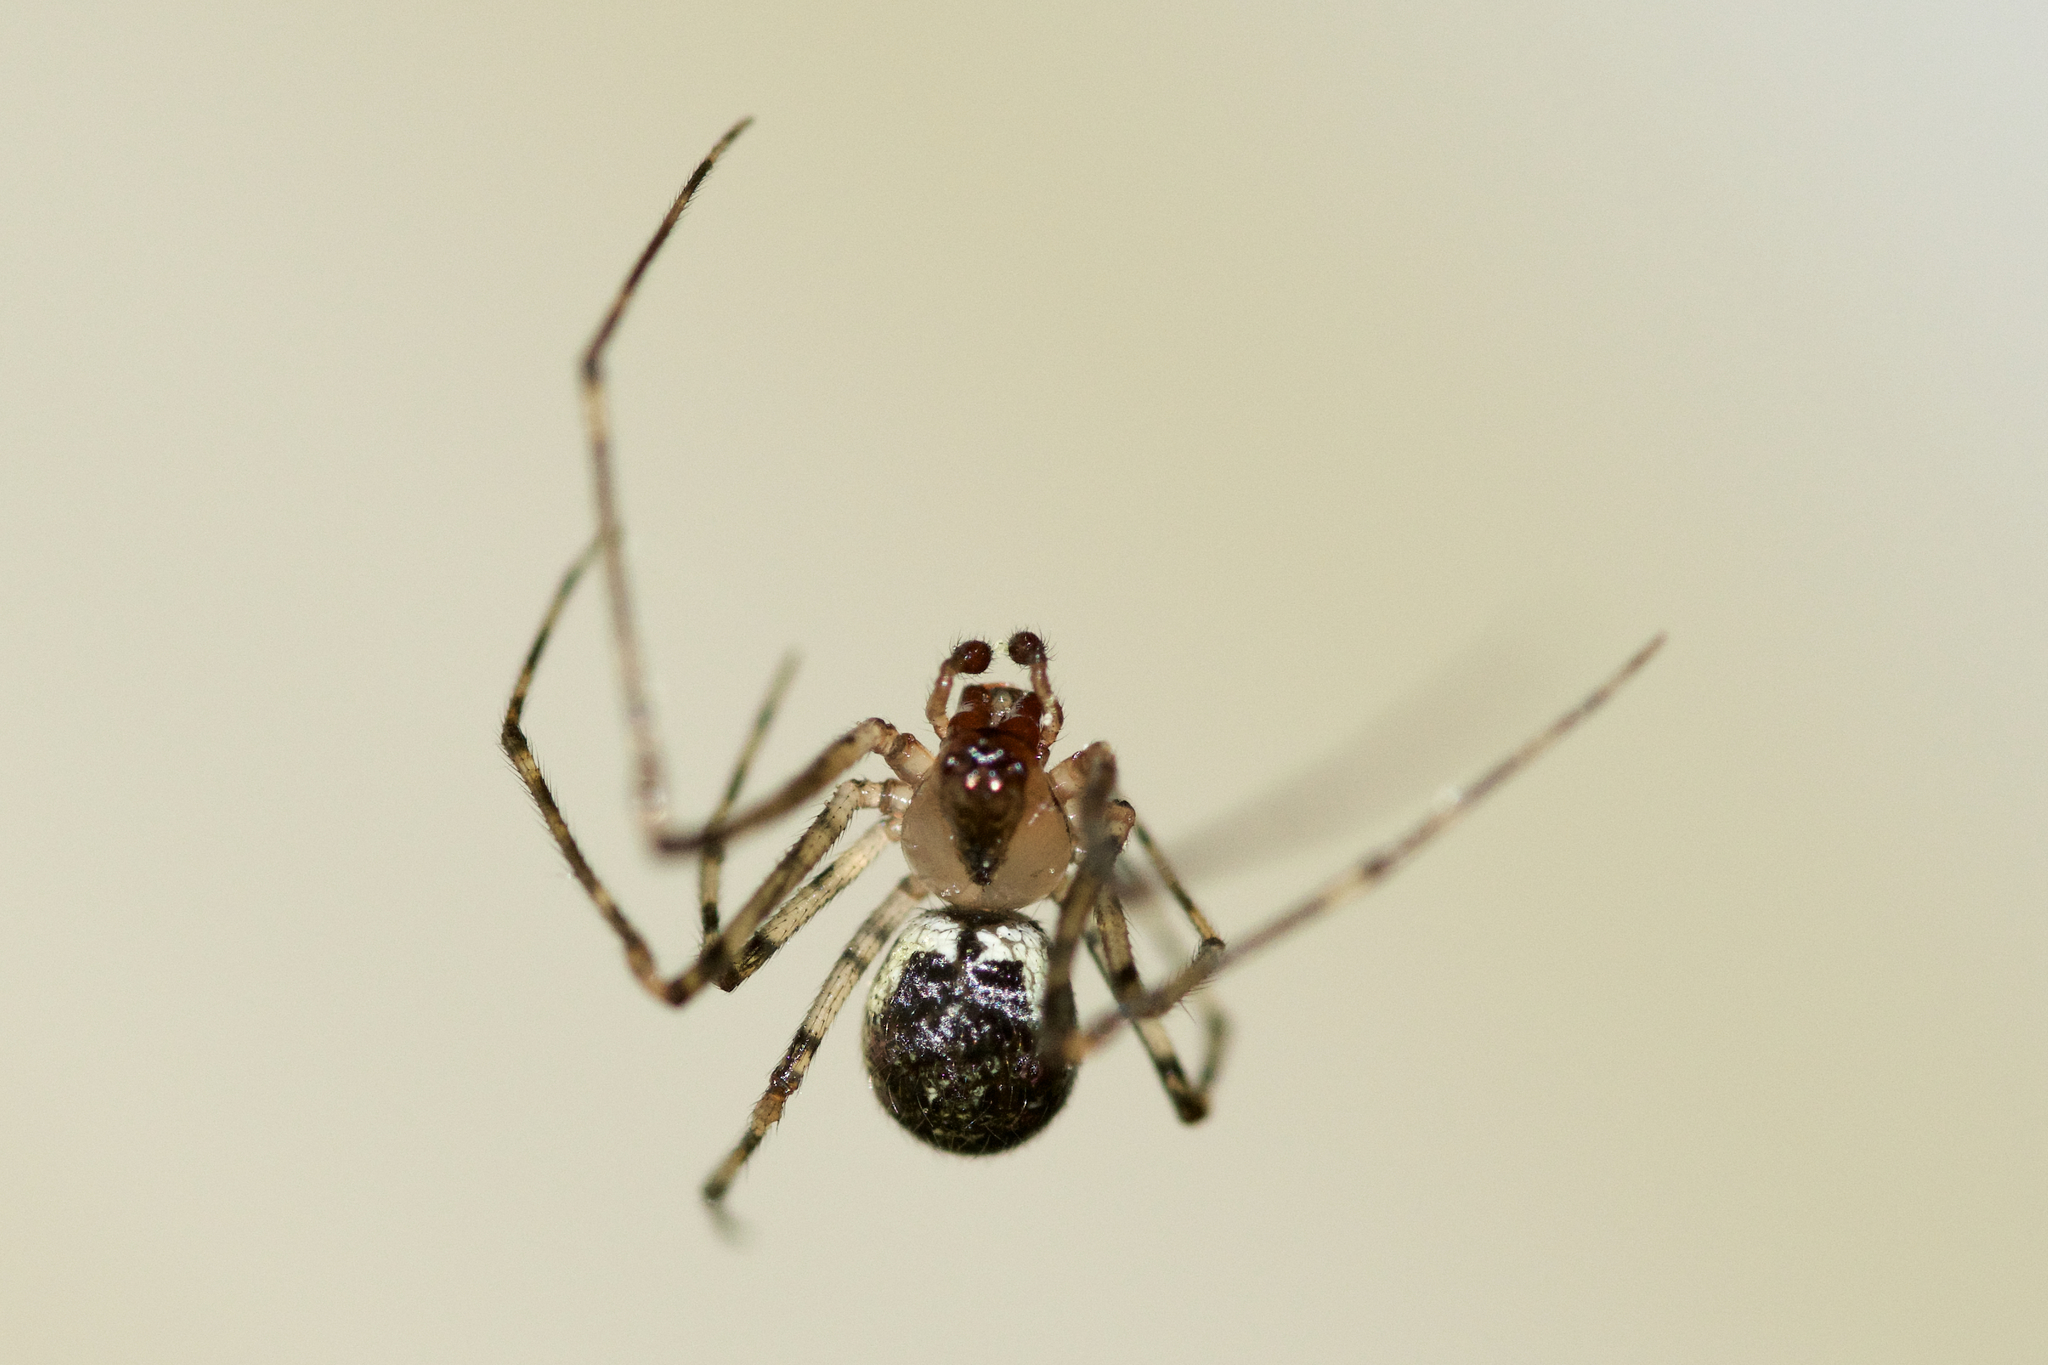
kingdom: Animalia
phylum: Arthropoda
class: Arachnida
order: Araneae
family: Theridiidae
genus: Platnickina
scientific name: Platnickina tincta
